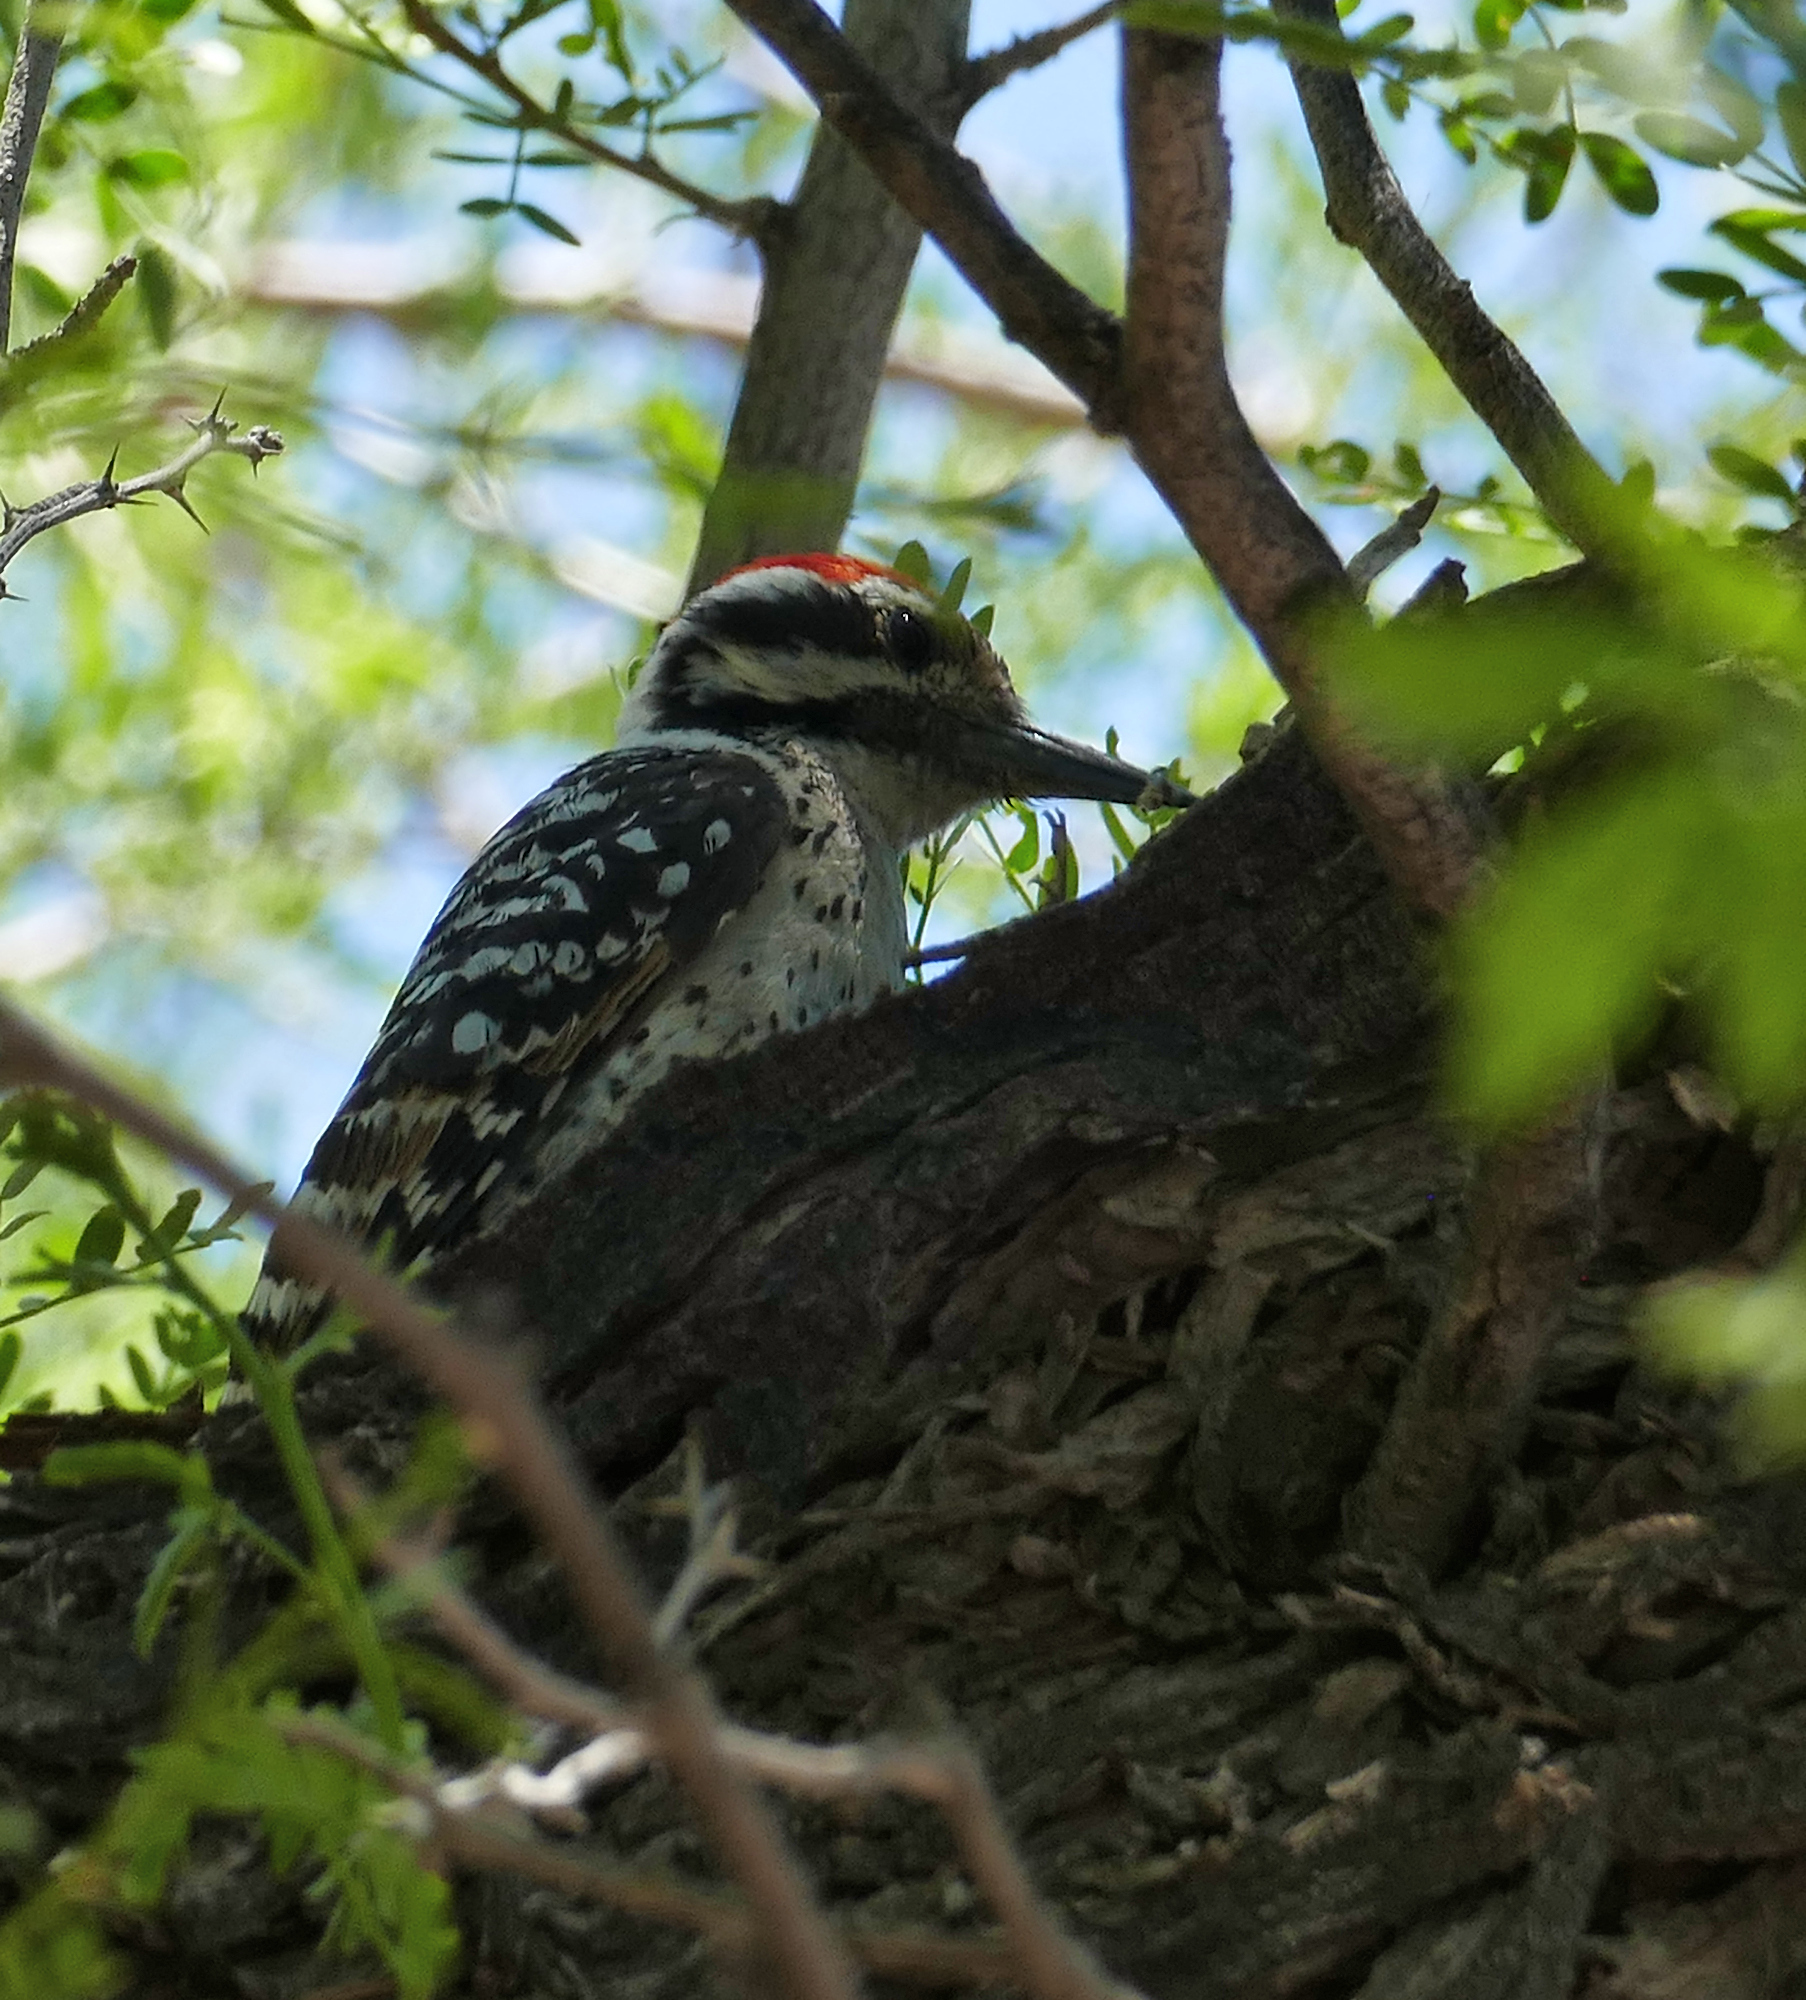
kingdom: Animalia
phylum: Chordata
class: Aves
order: Piciformes
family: Picidae
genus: Dryobates
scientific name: Dryobates scalaris
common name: Ladder-backed woodpecker
